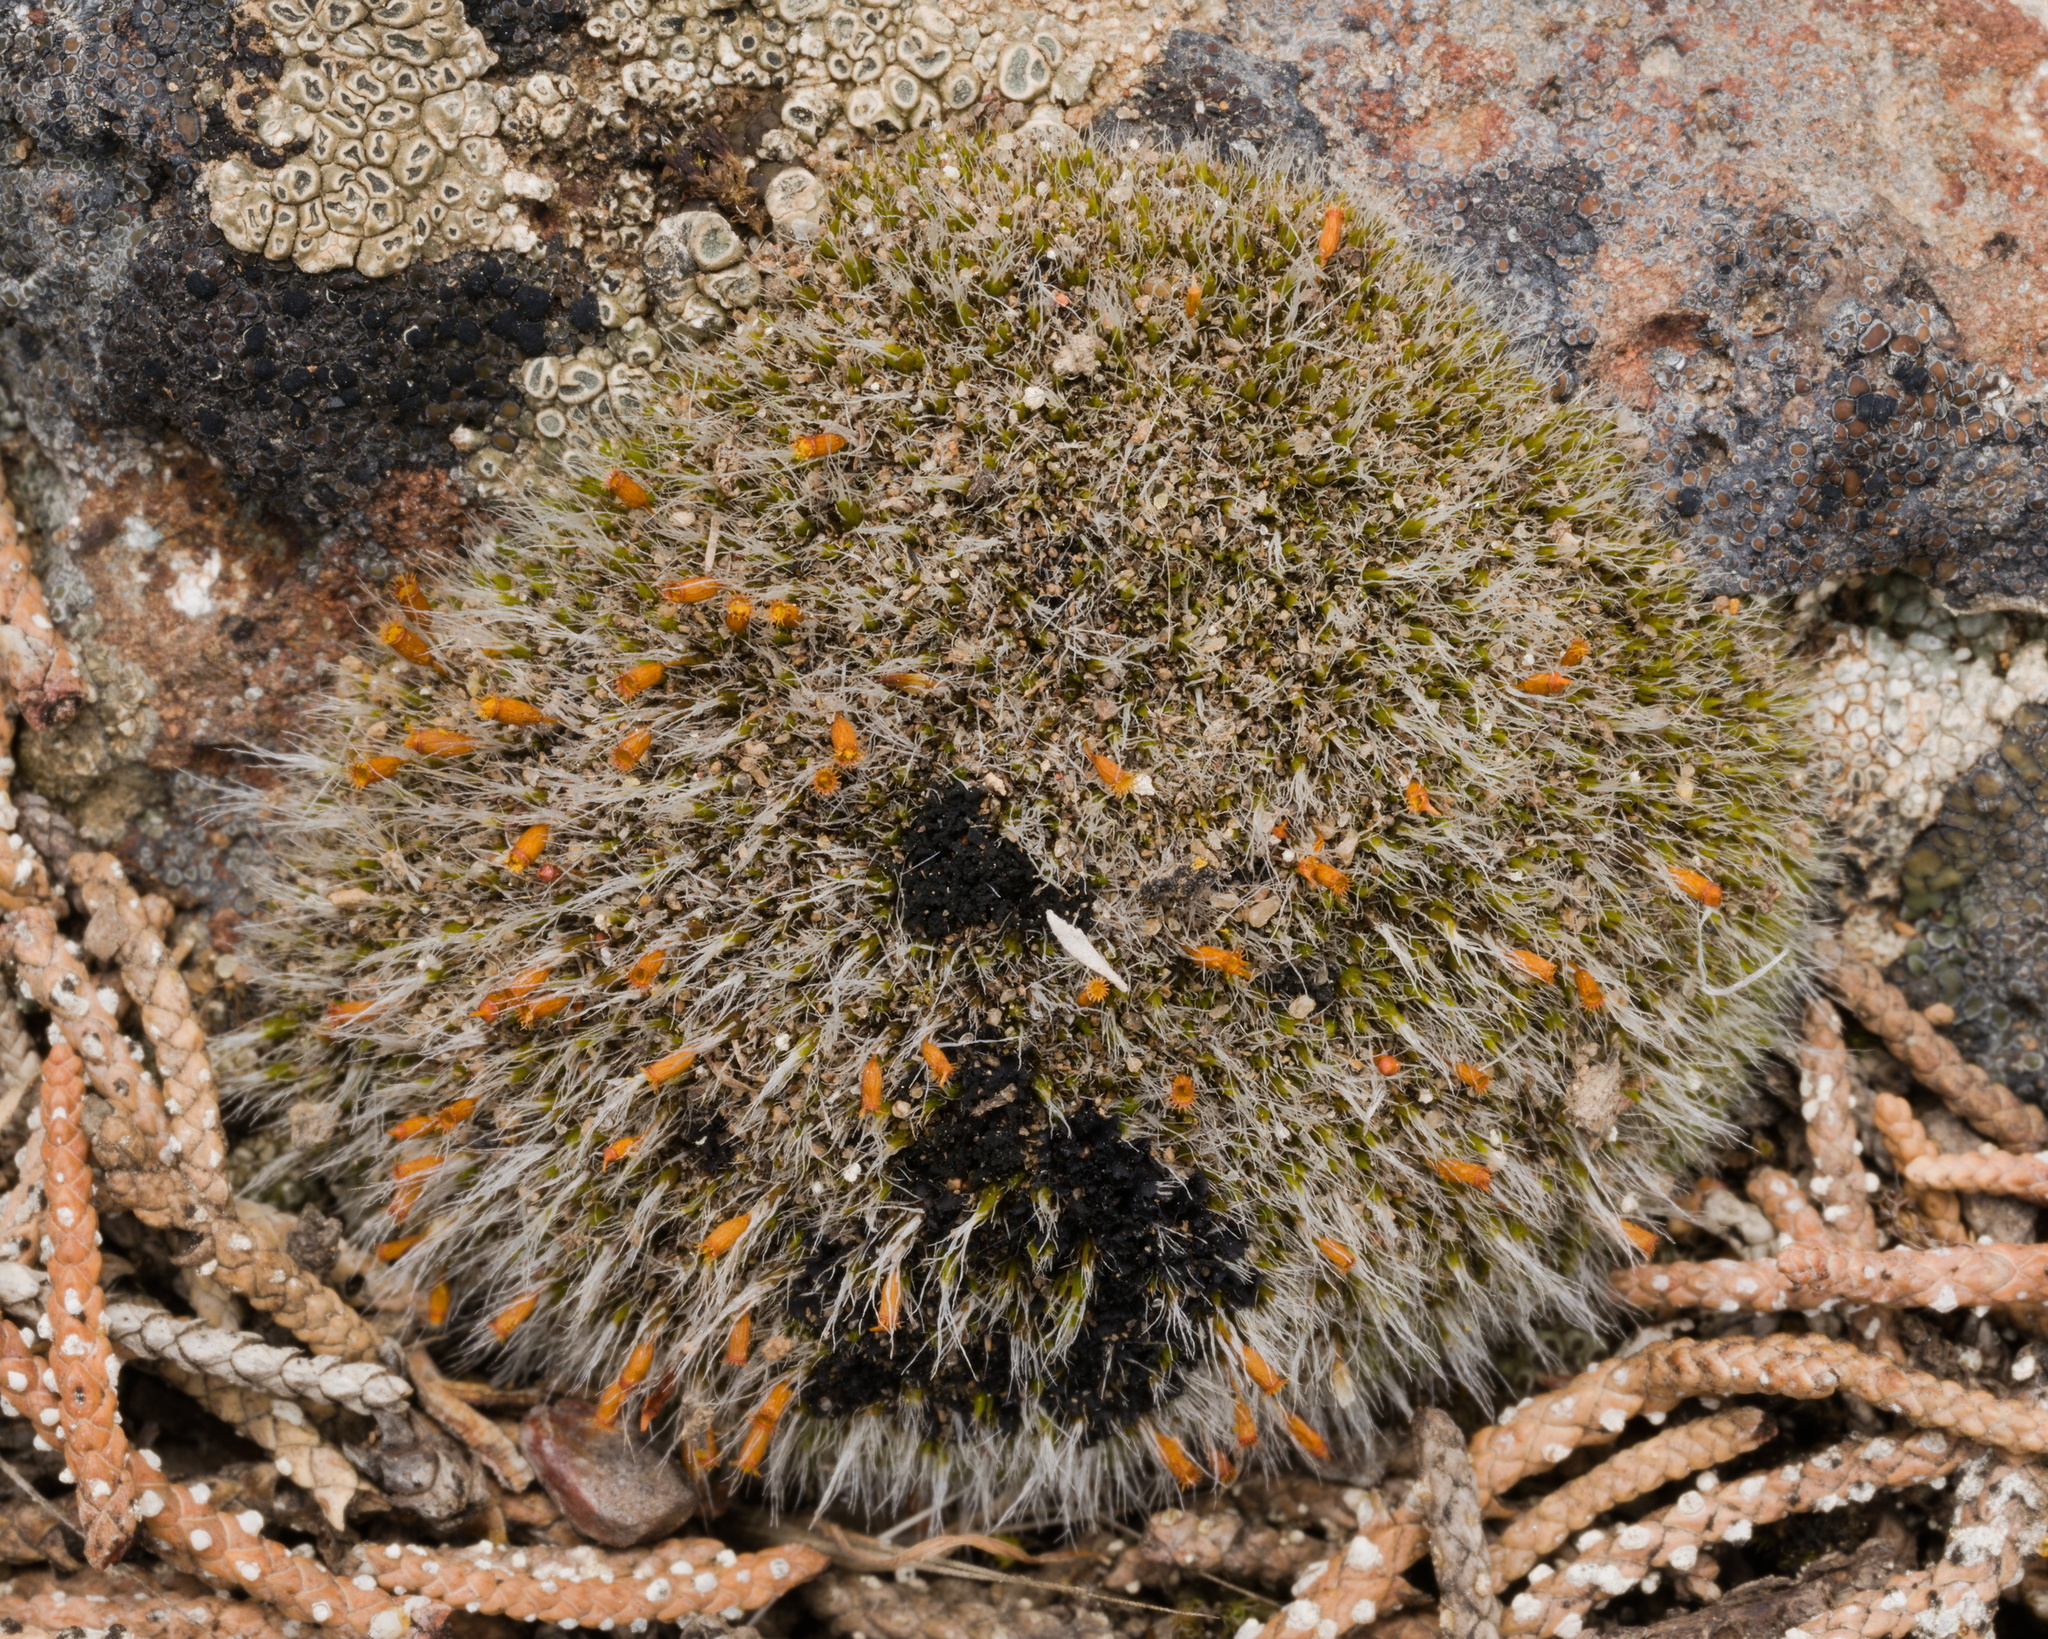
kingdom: Plantae
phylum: Bryophyta
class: Bryopsida
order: Grimmiales
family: Grimmiaceae
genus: Grimmia
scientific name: Grimmia pulvinata
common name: Grey-cushioned grimmia
